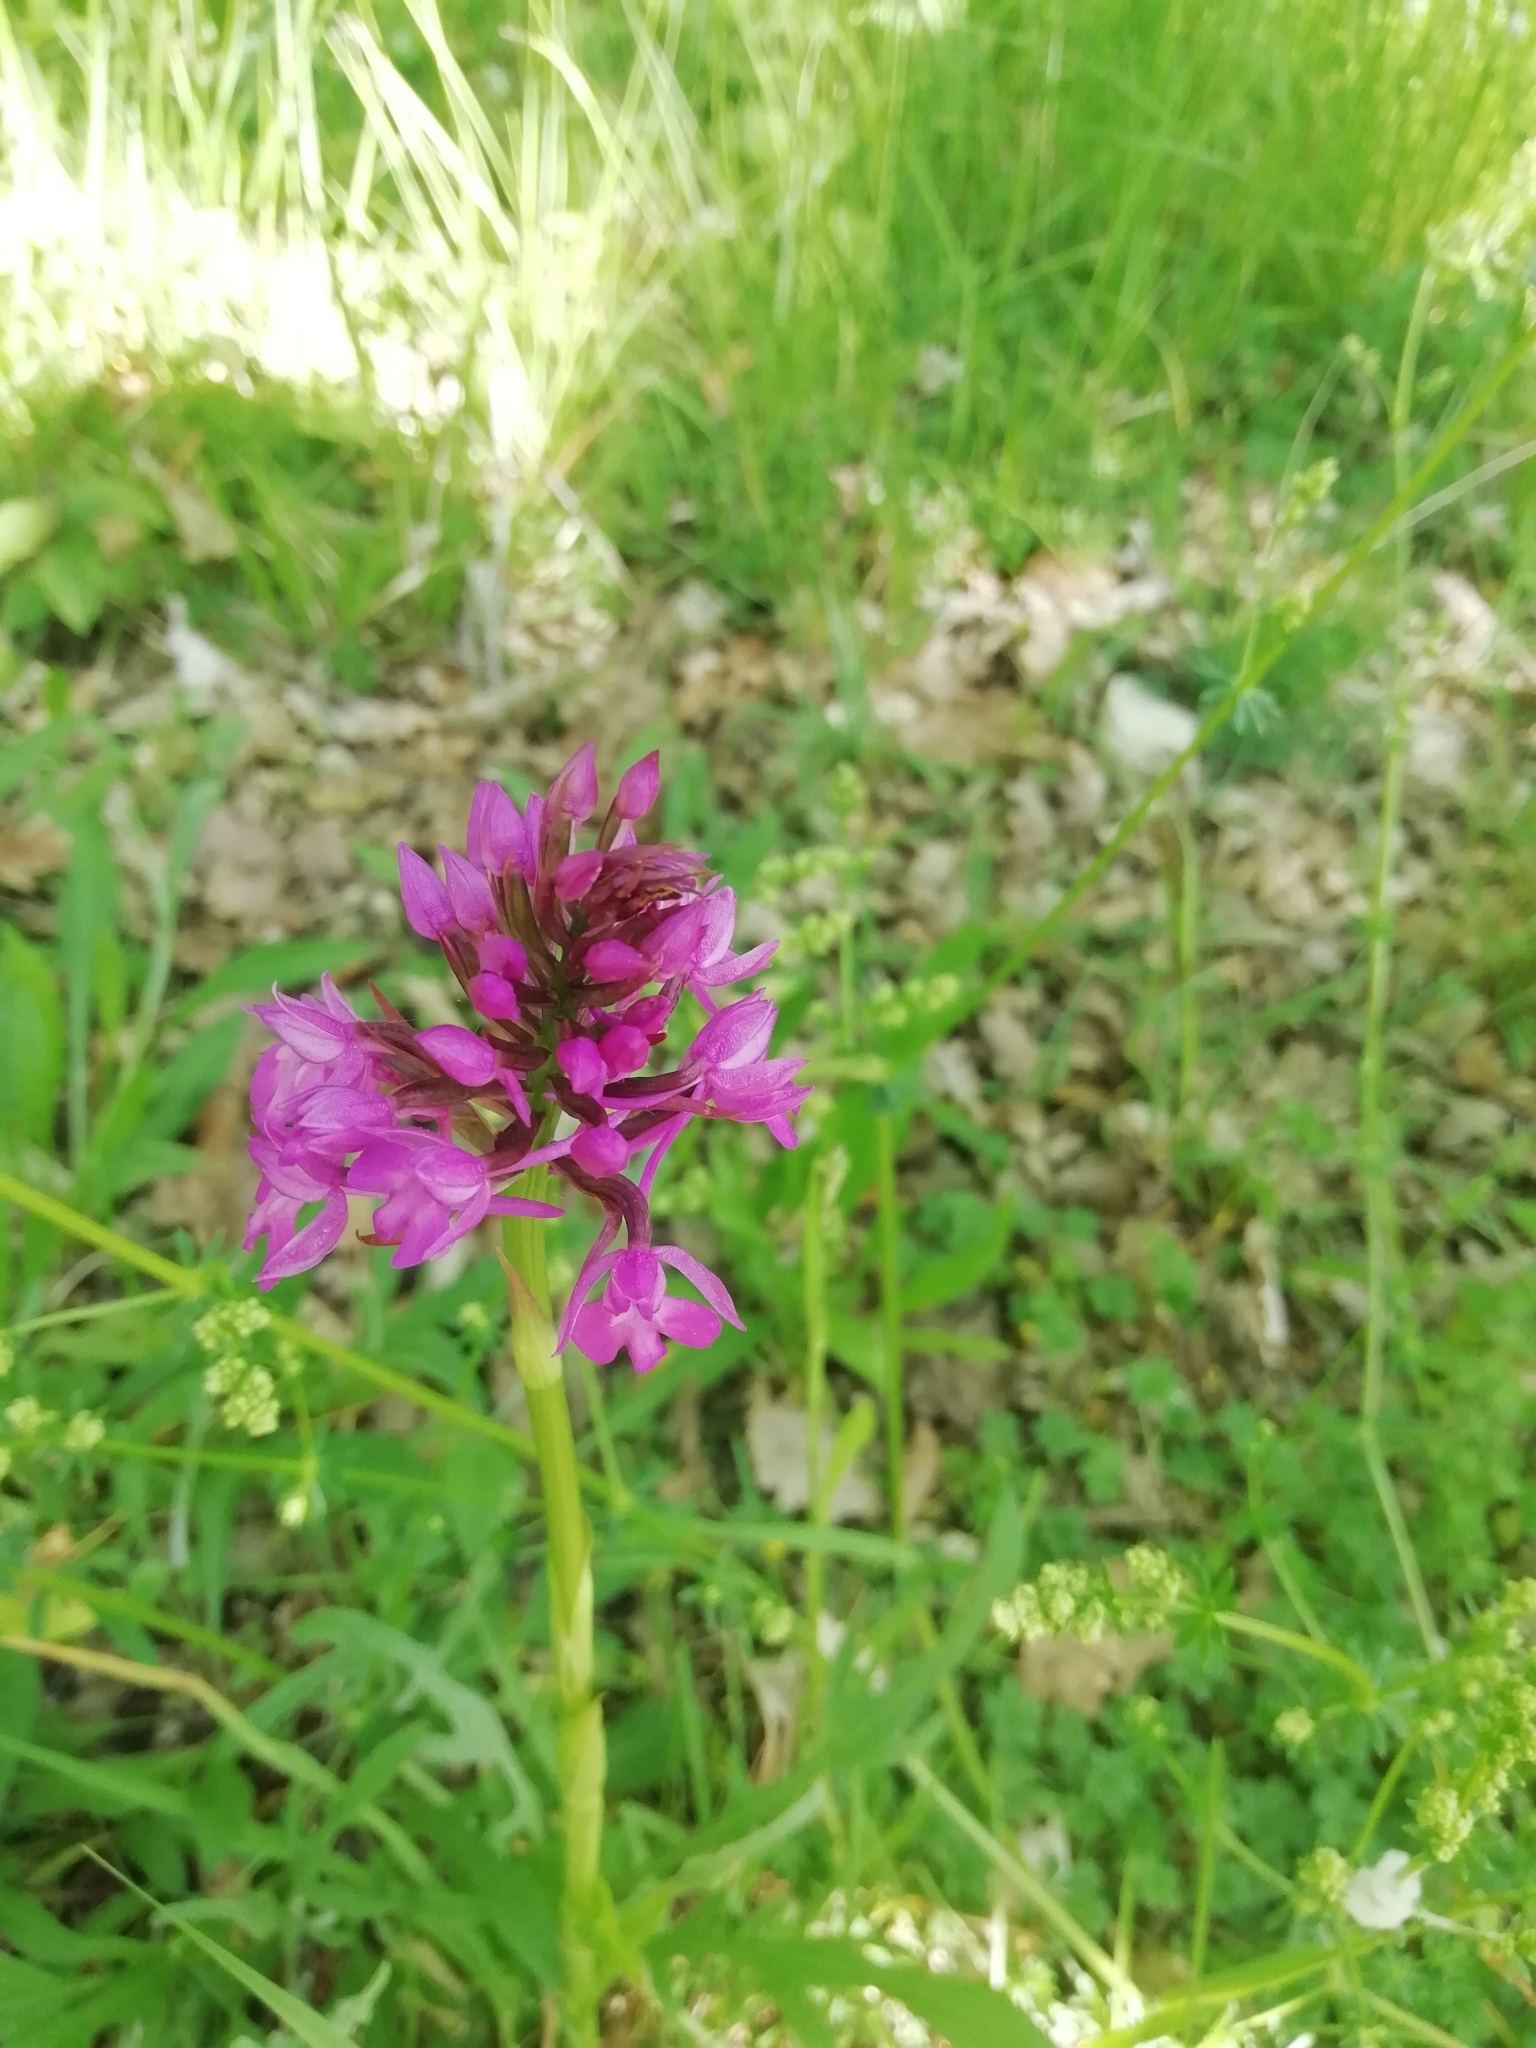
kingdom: Plantae
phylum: Tracheophyta
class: Liliopsida
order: Asparagales
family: Orchidaceae
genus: Anacamptis
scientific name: Anacamptis pyramidalis
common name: Pyramidal orchid
